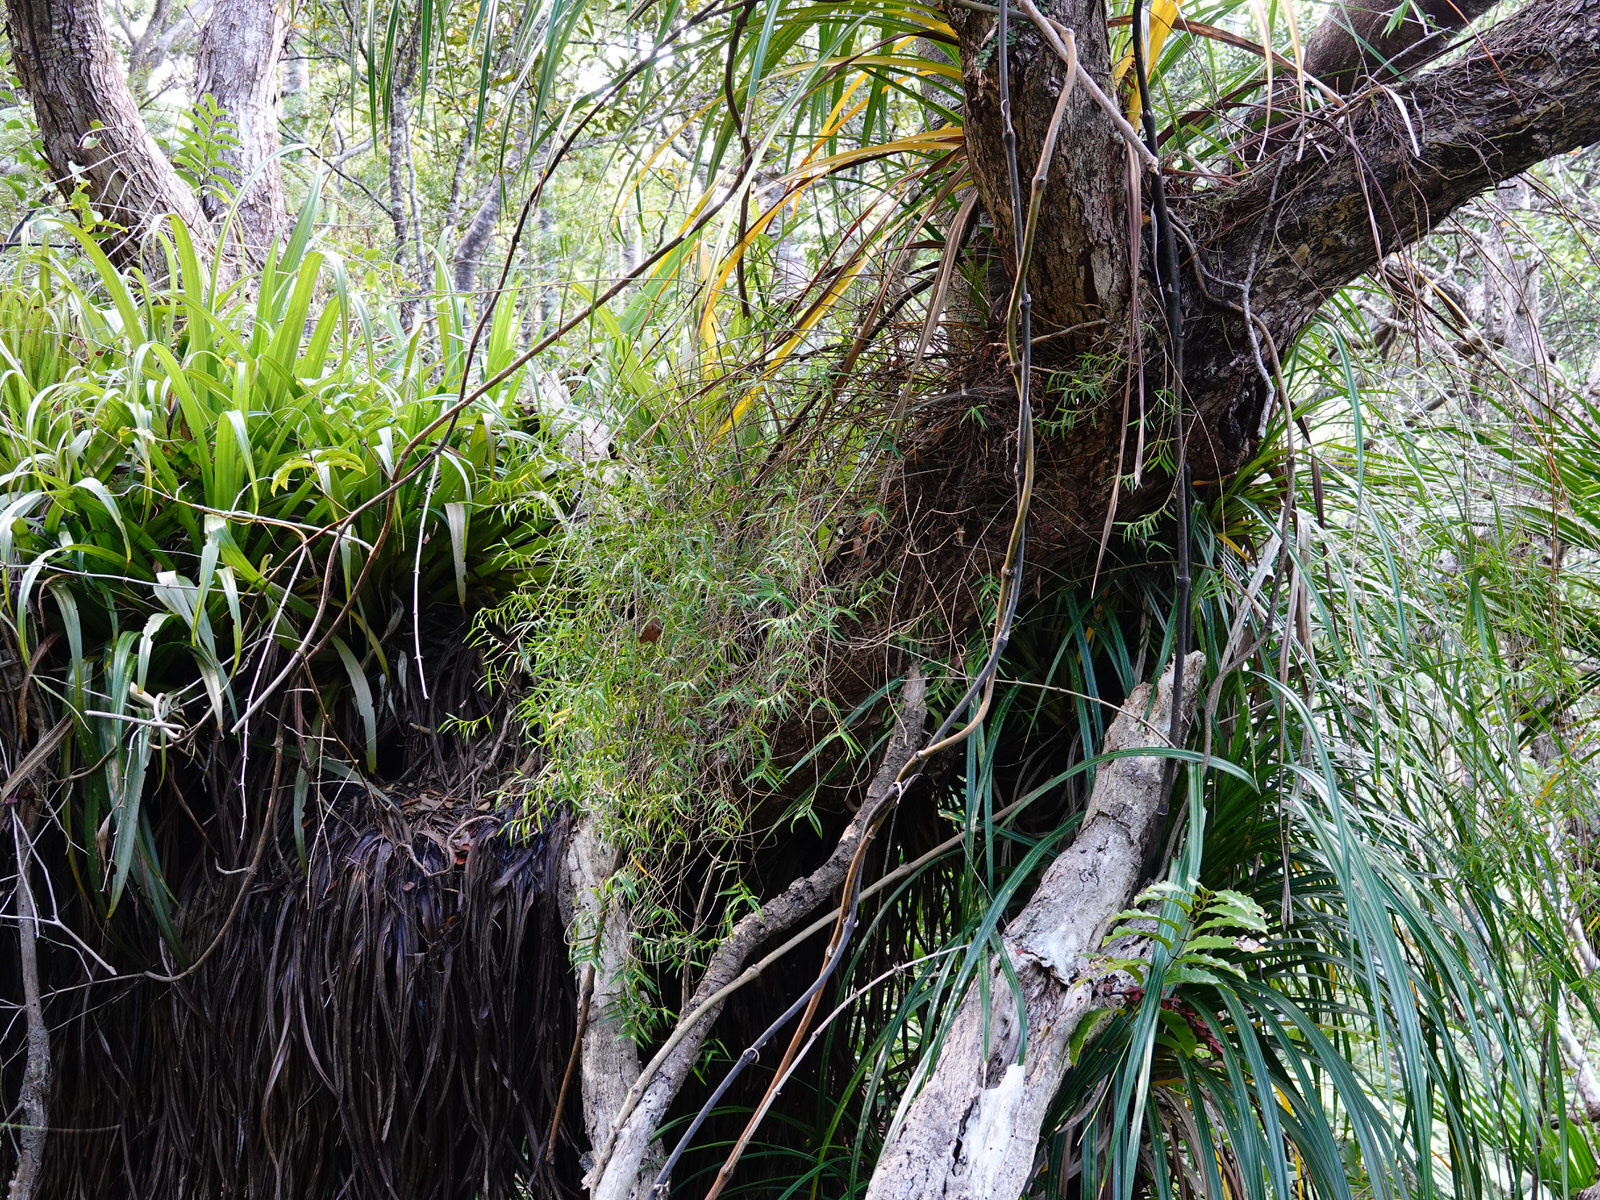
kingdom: Plantae
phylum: Tracheophyta
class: Liliopsida
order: Asparagales
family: Orchidaceae
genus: Dendrobium
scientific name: Dendrobium cunninghamii
